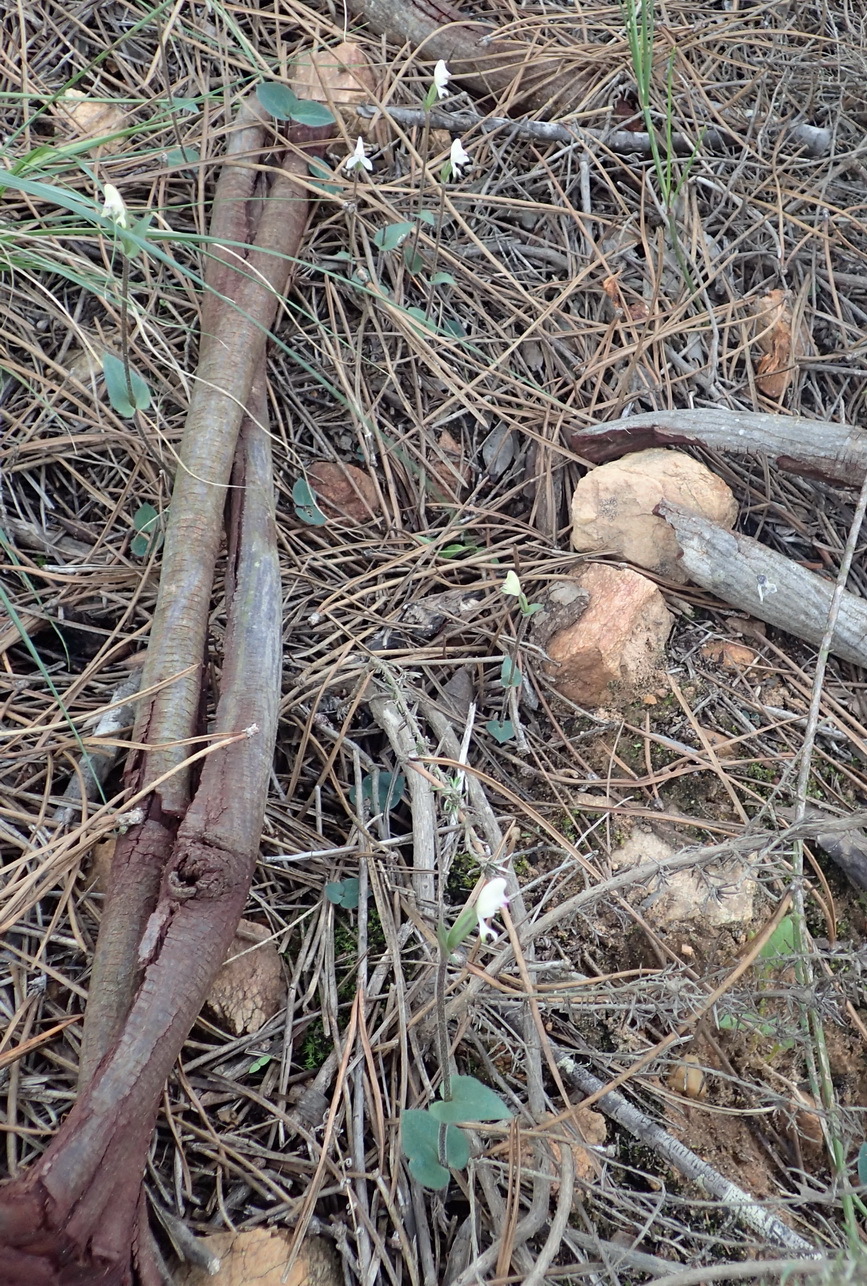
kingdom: Plantae
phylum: Tracheophyta
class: Liliopsida
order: Asparagales
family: Orchidaceae
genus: Disperis
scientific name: Disperis macowanii
